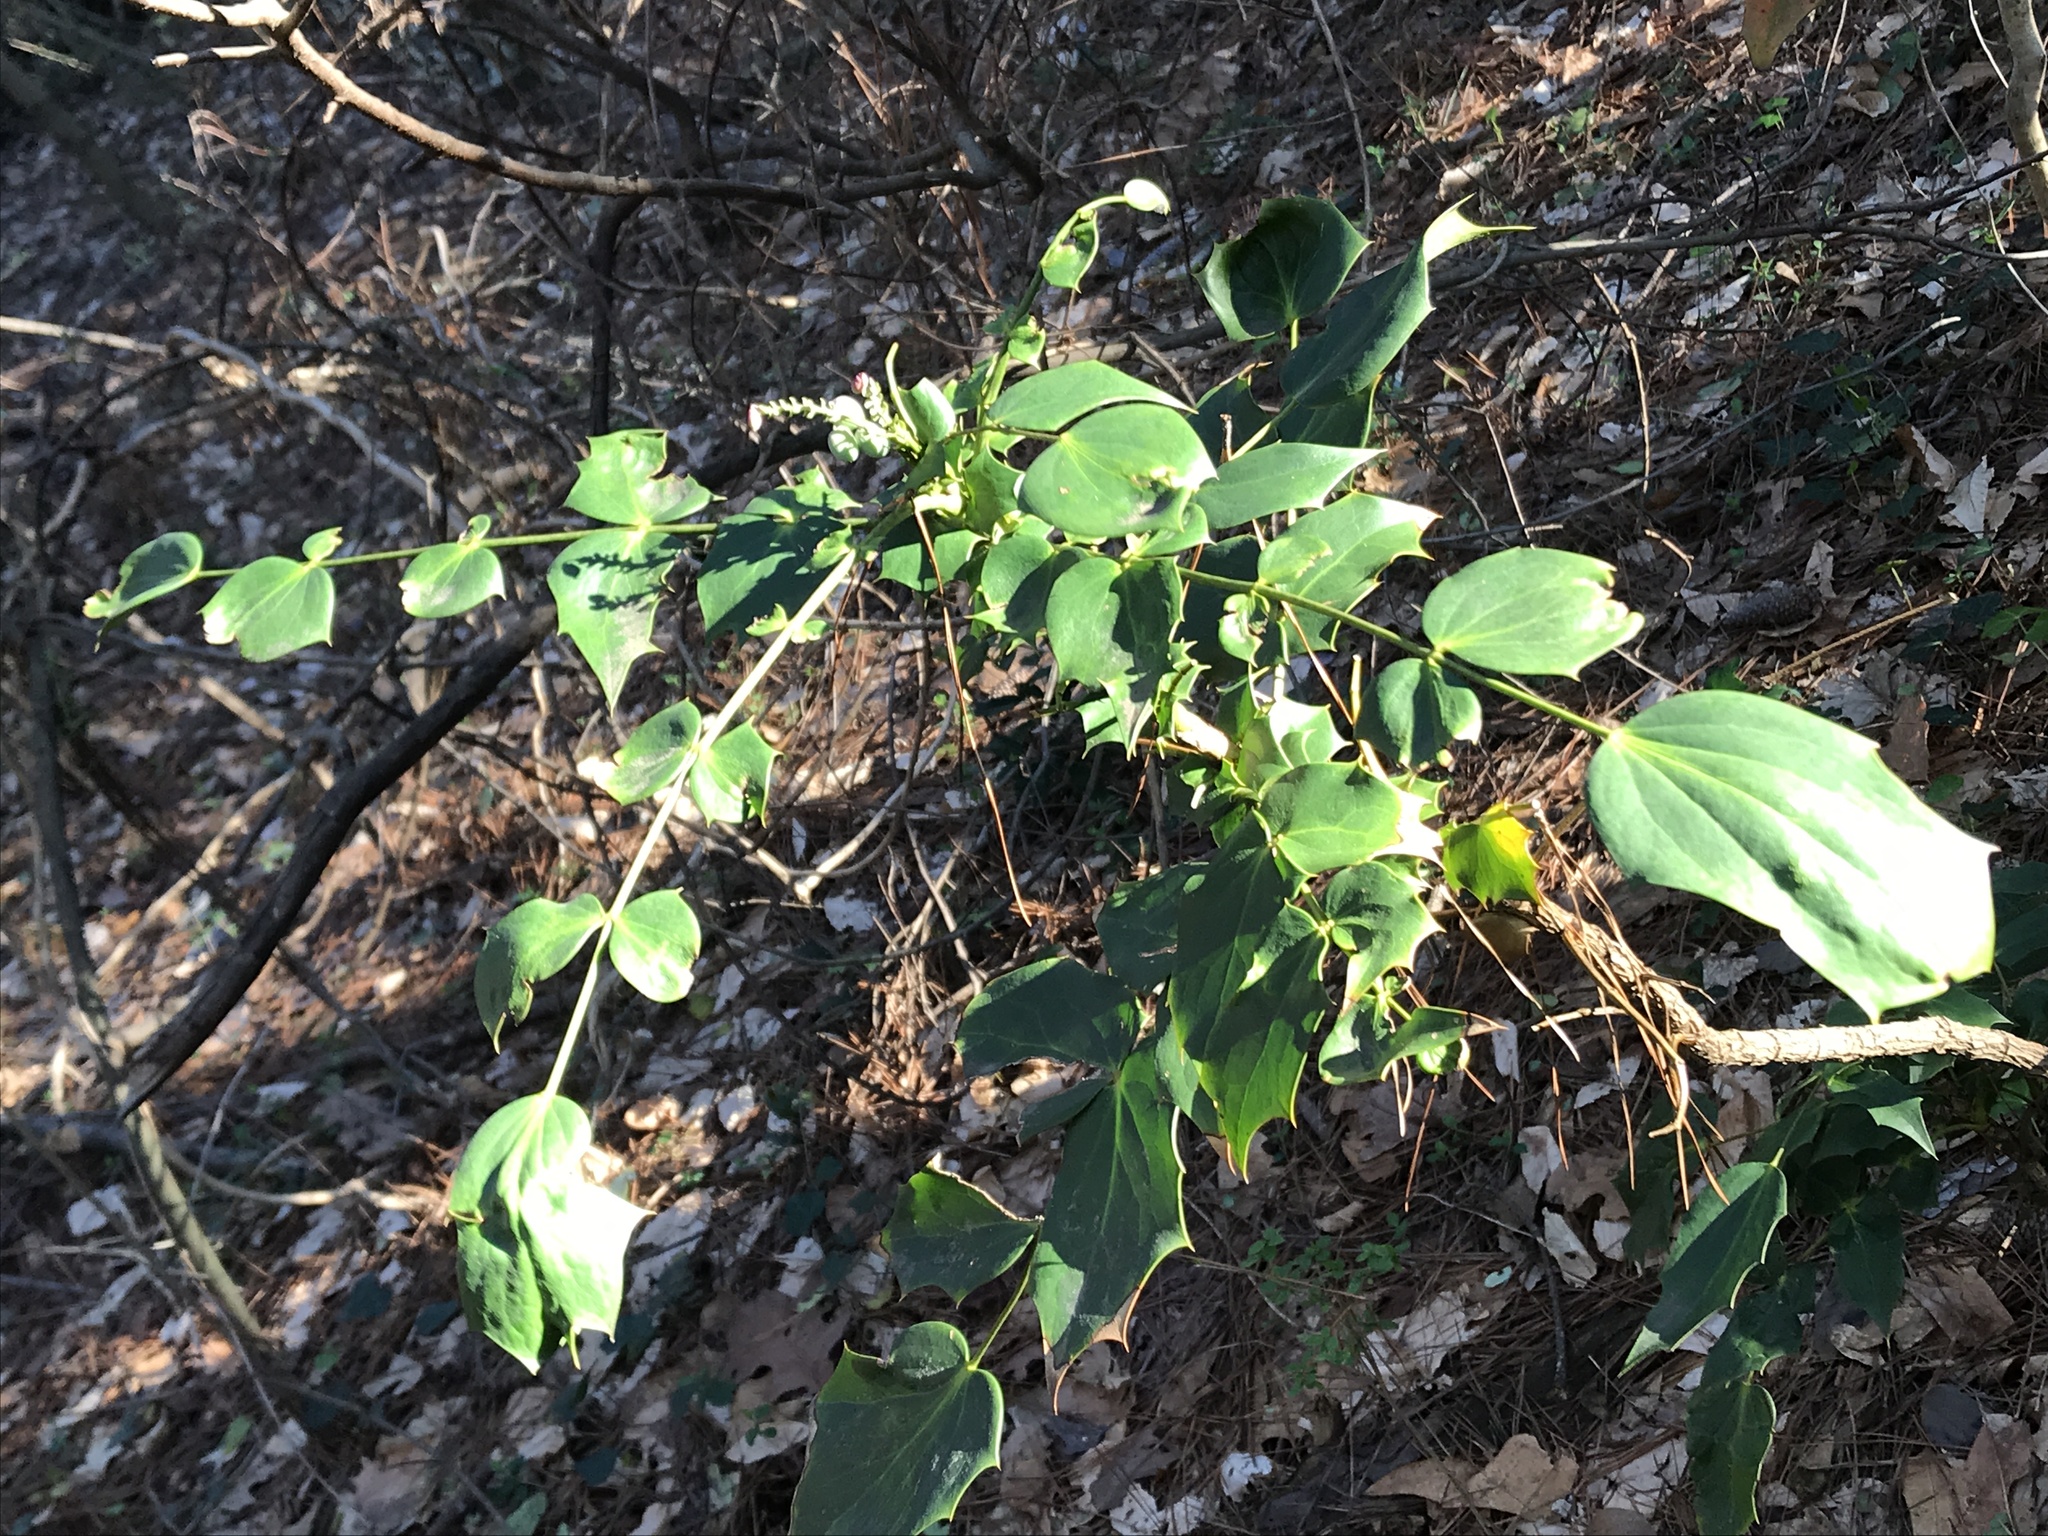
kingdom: Plantae
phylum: Tracheophyta
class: Magnoliopsida
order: Ranunculales
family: Berberidaceae
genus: Mahonia
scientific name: Mahonia bealei
